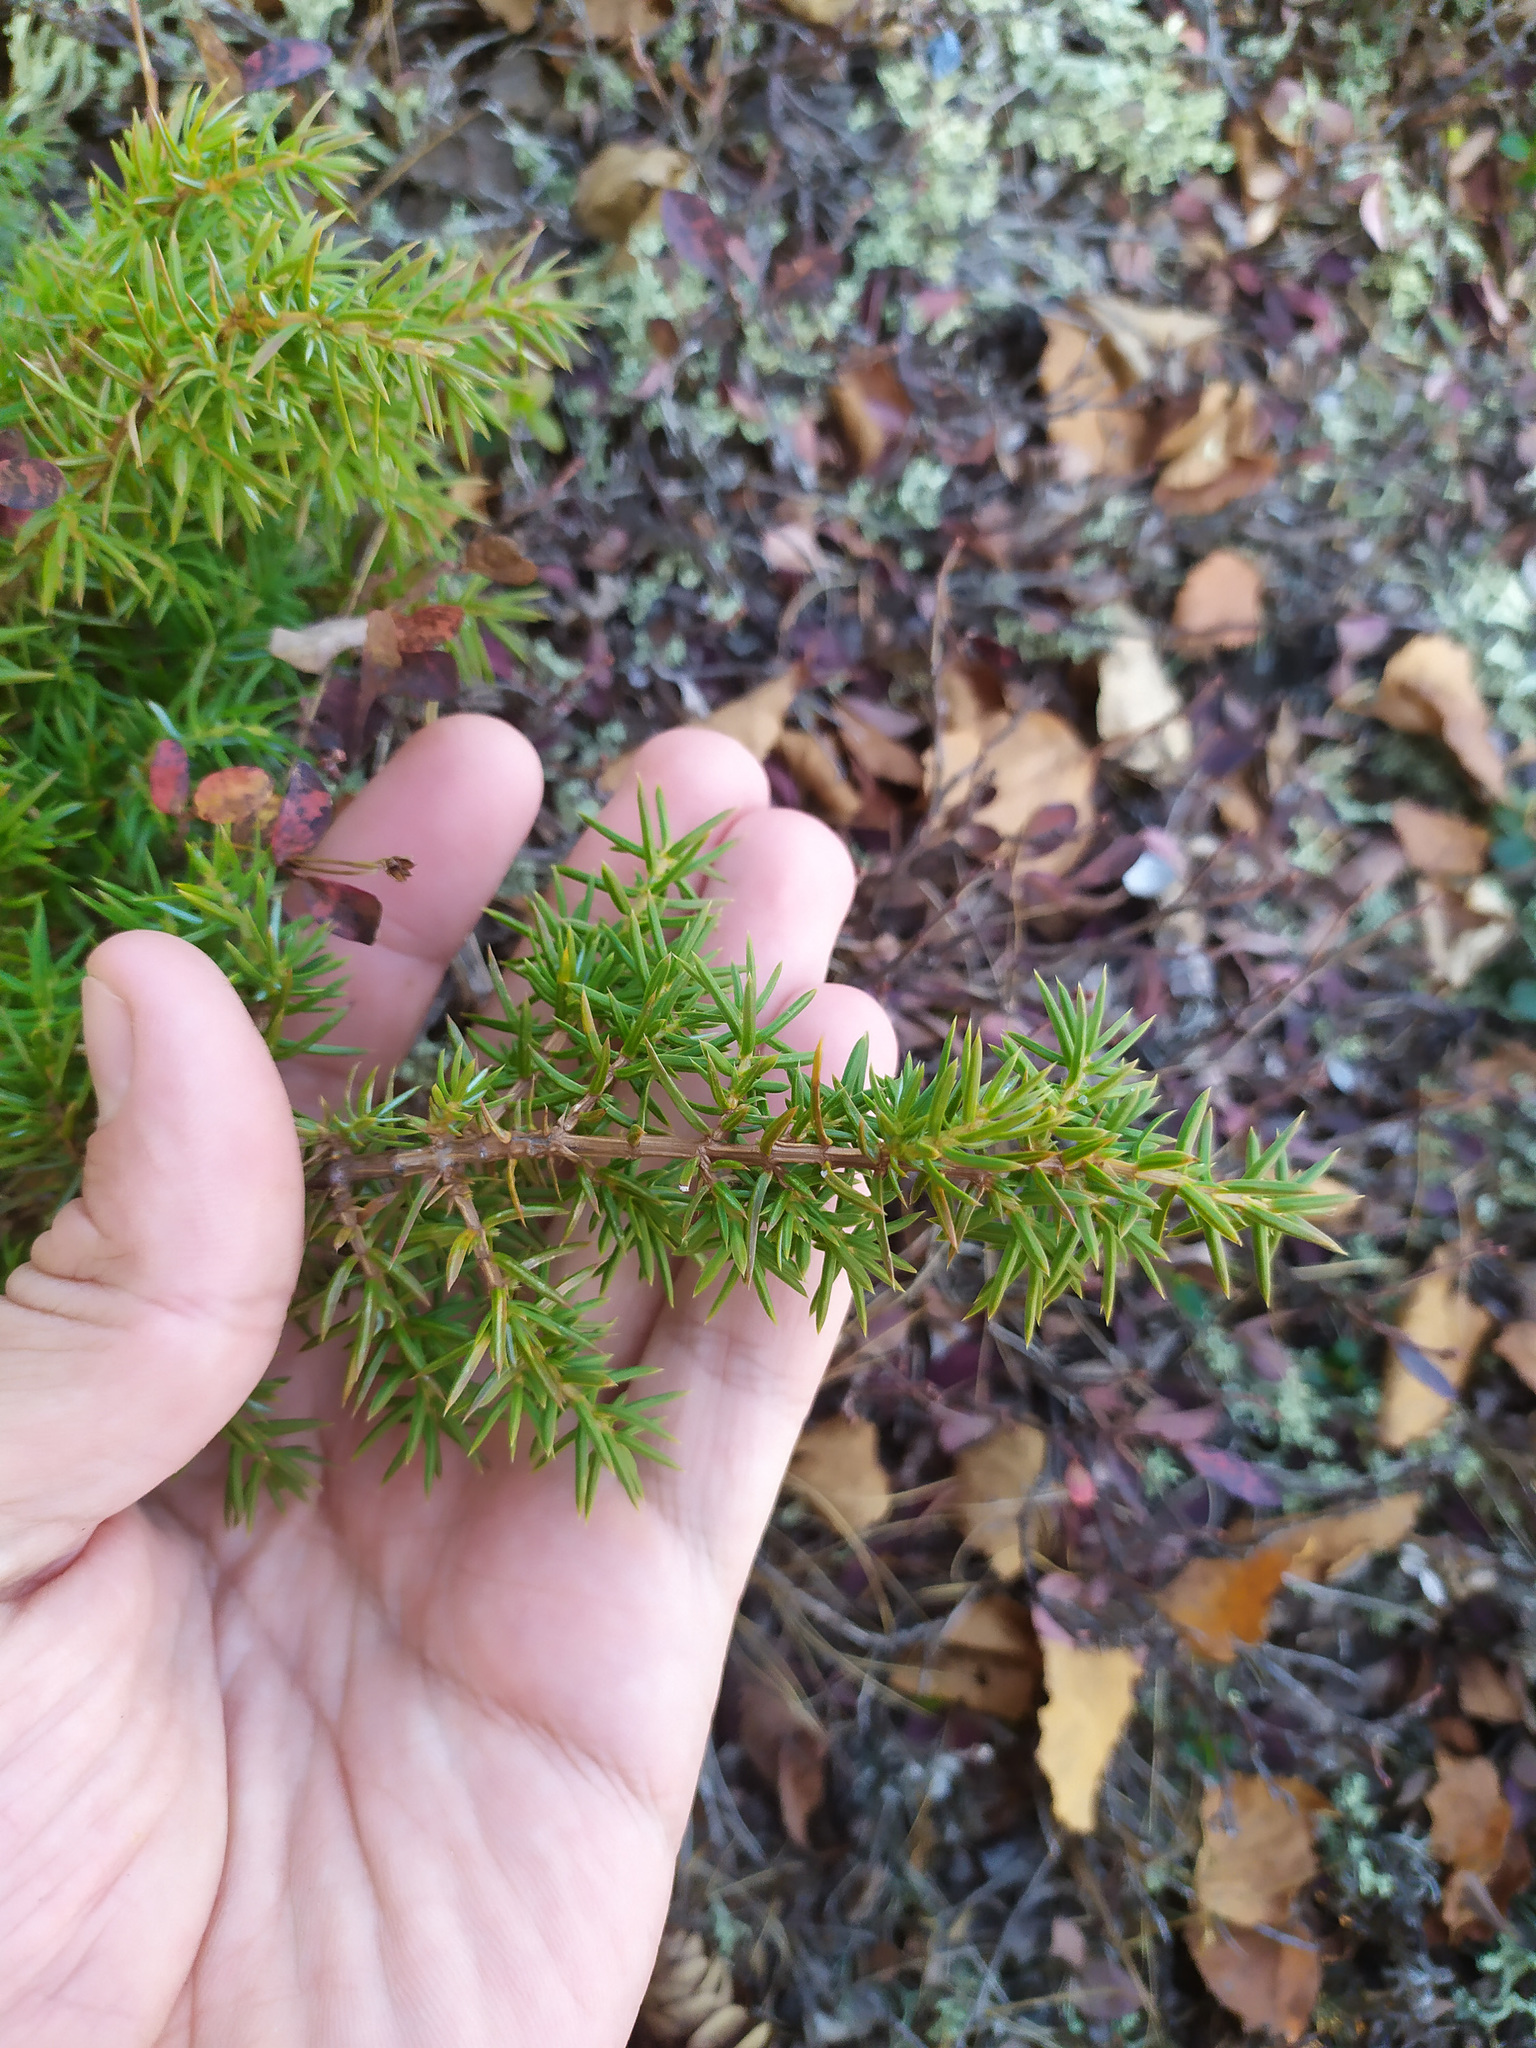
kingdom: Plantae
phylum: Tracheophyta
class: Pinopsida
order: Pinales
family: Cupressaceae
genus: Juniperus
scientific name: Juniperus communis
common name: Common juniper
